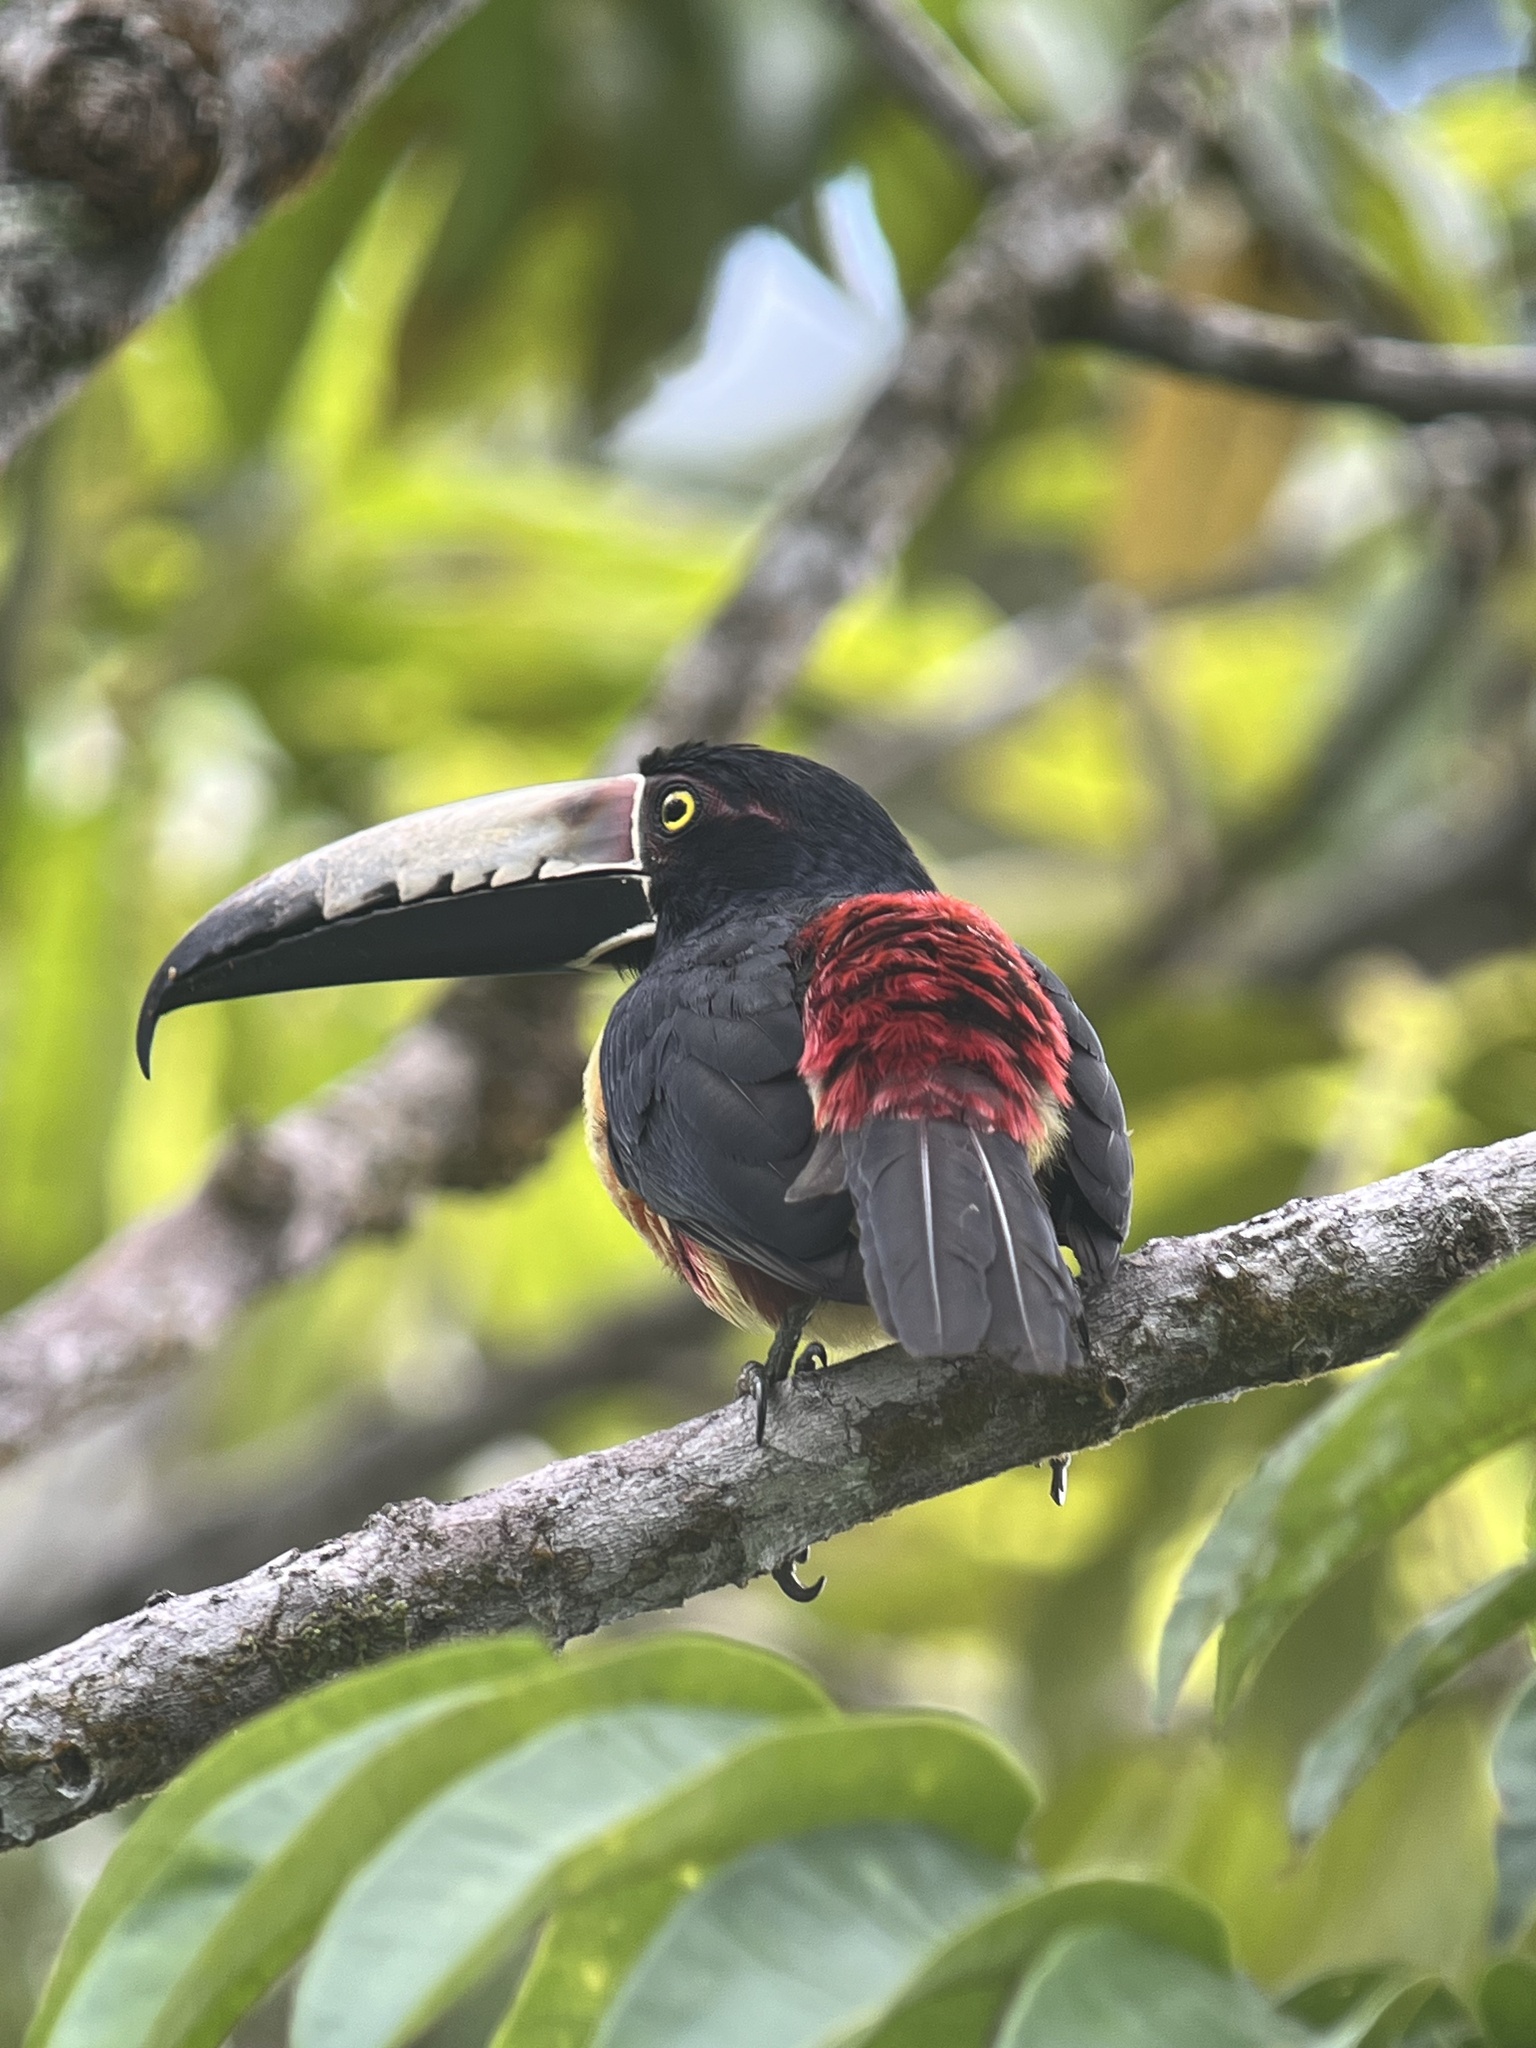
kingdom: Animalia
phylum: Chordata
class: Aves
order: Piciformes
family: Ramphastidae
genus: Pteroglossus
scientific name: Pteroglossus torquatus
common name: Collared aracari
